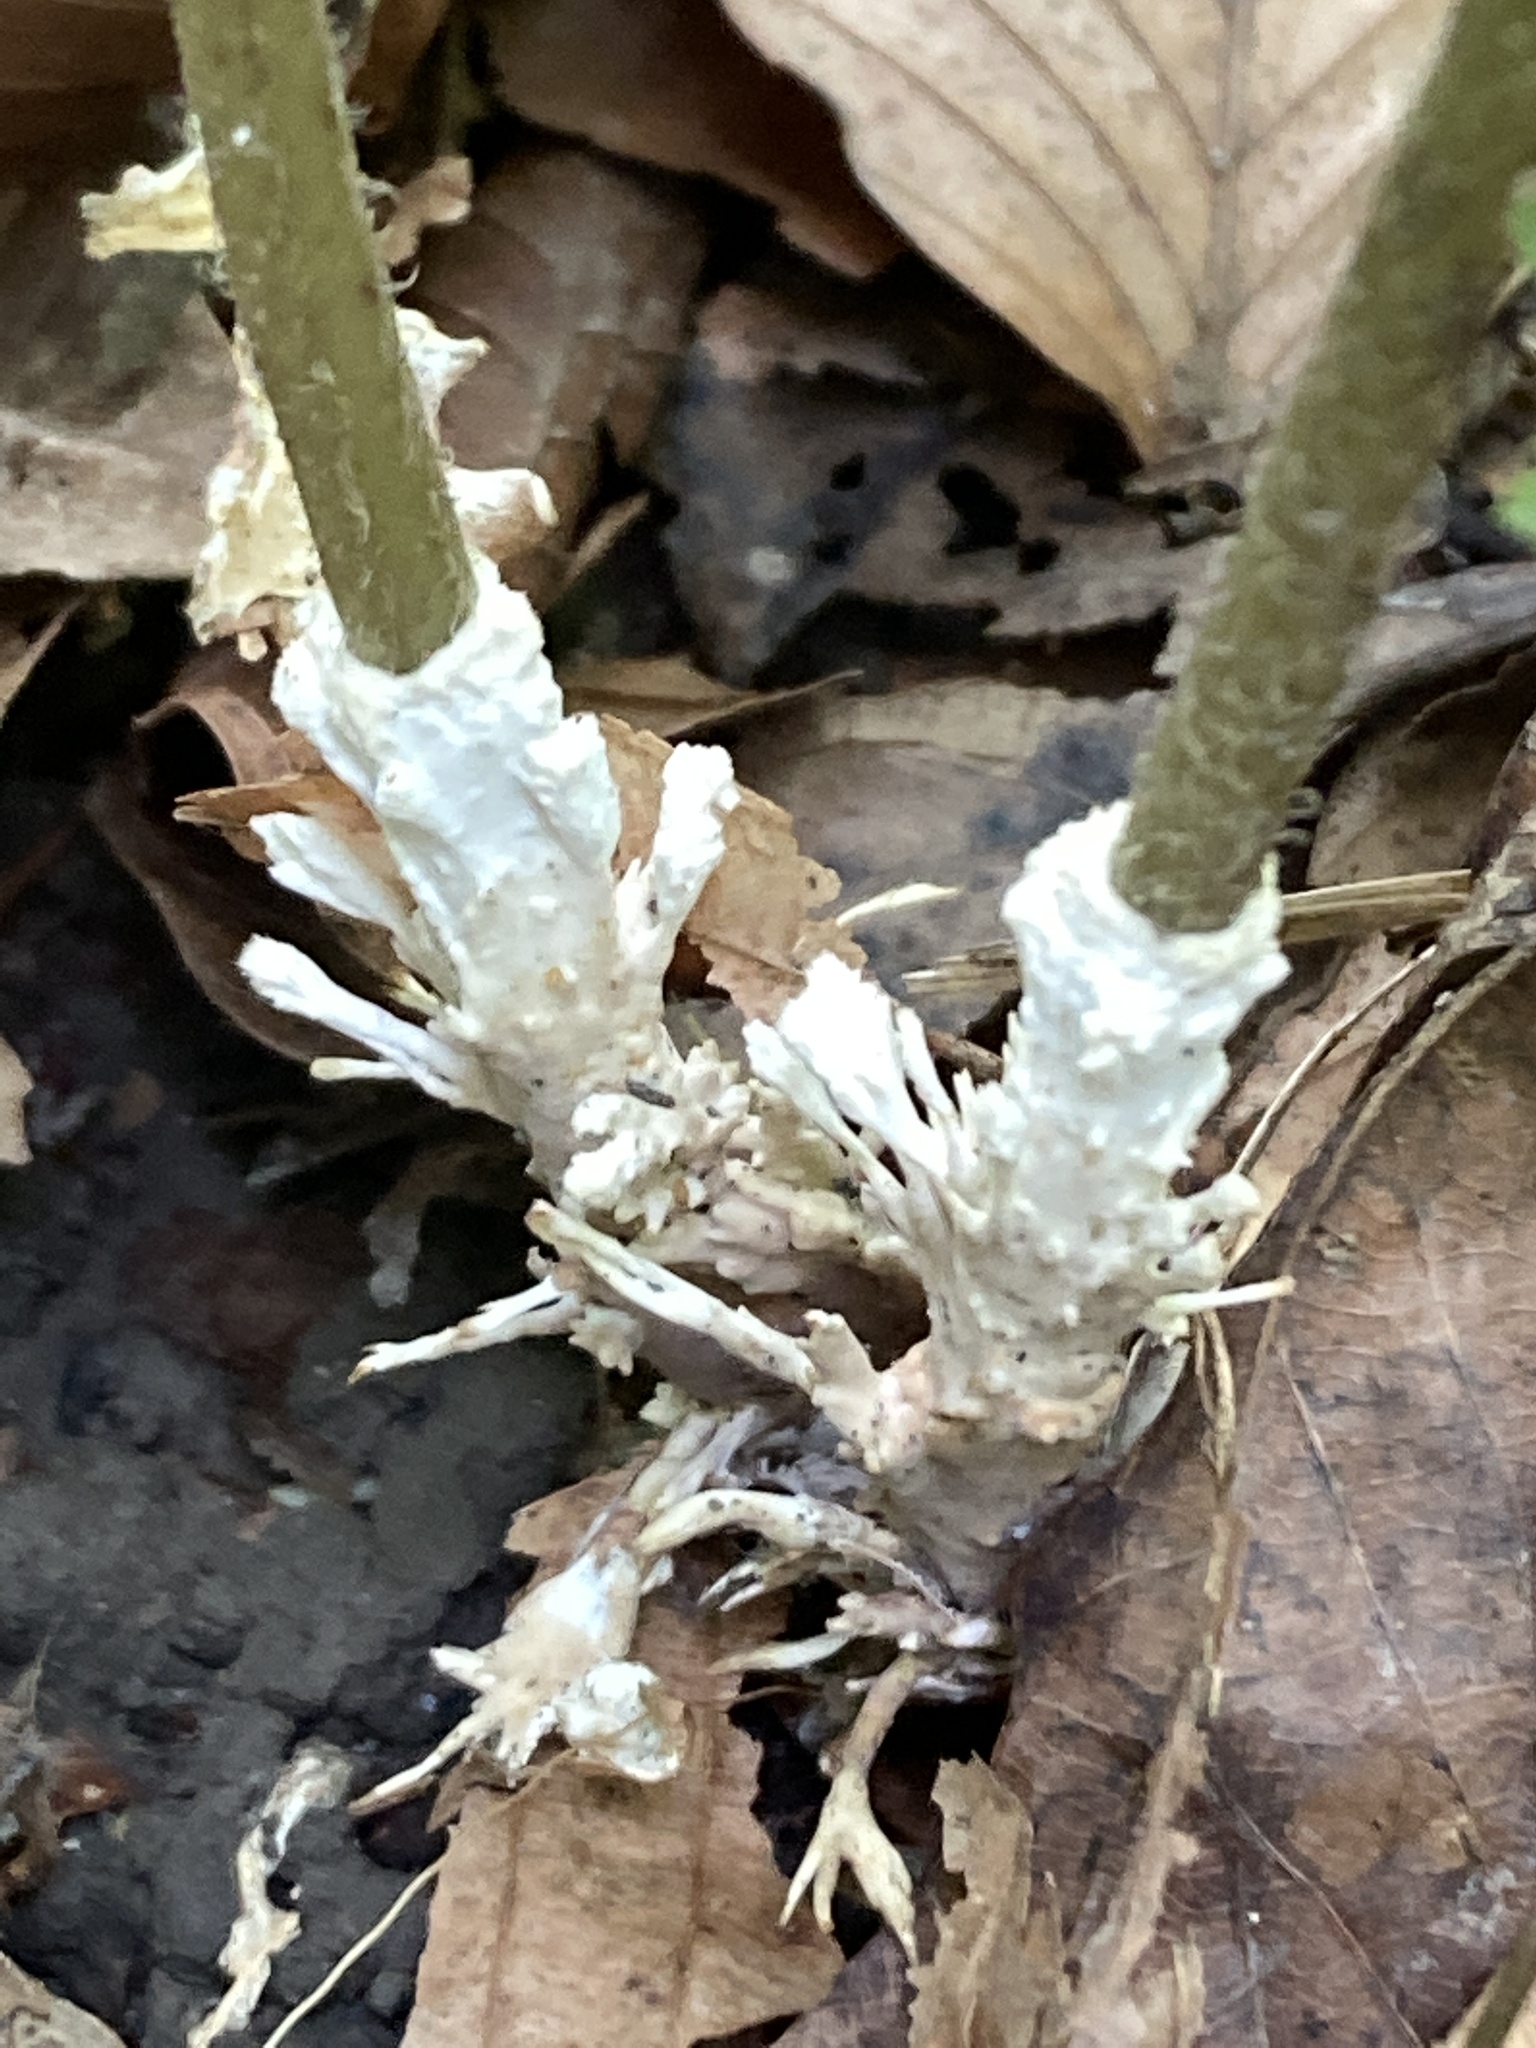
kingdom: Fungi
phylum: Basidiomycota
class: Agaricomycetes
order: Sebacinales
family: Sebacinaceae
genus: Sebacina
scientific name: Sebacina incrustans
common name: Enveloping crust
